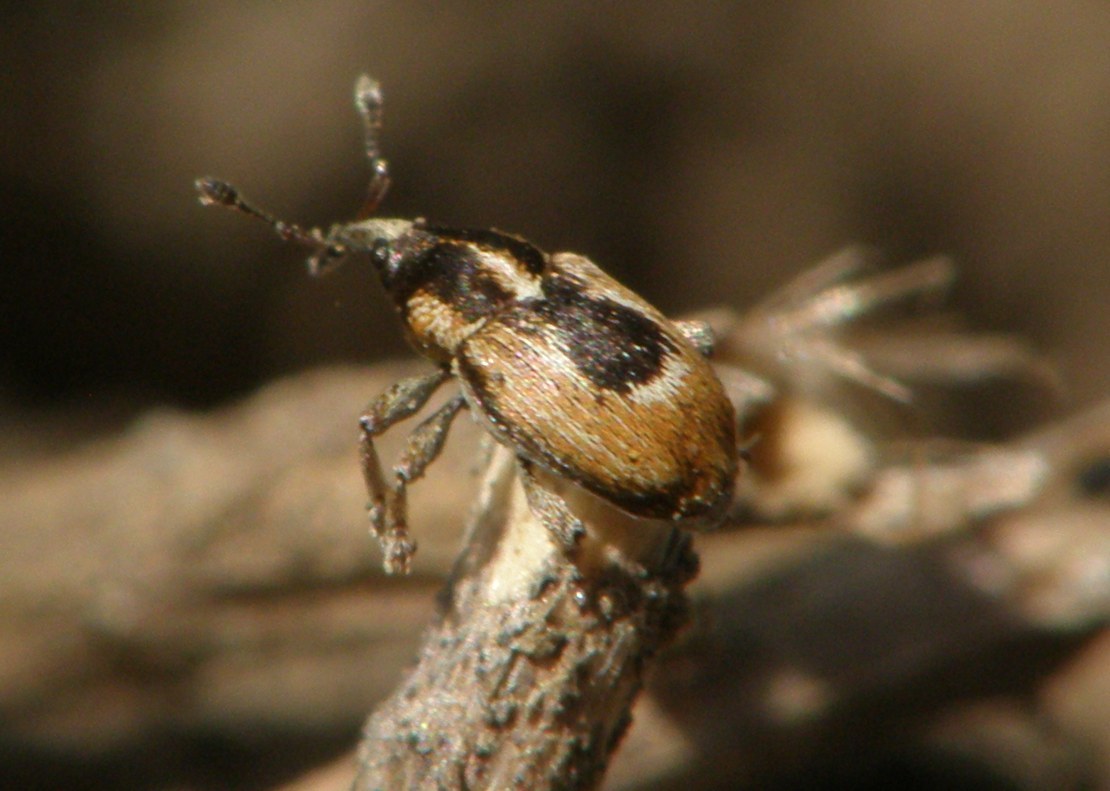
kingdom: Animalia
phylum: Arthropoda
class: Insecta
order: Coleoptera
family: Curculionidae
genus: Sibinia
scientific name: Sibinia phalerata
